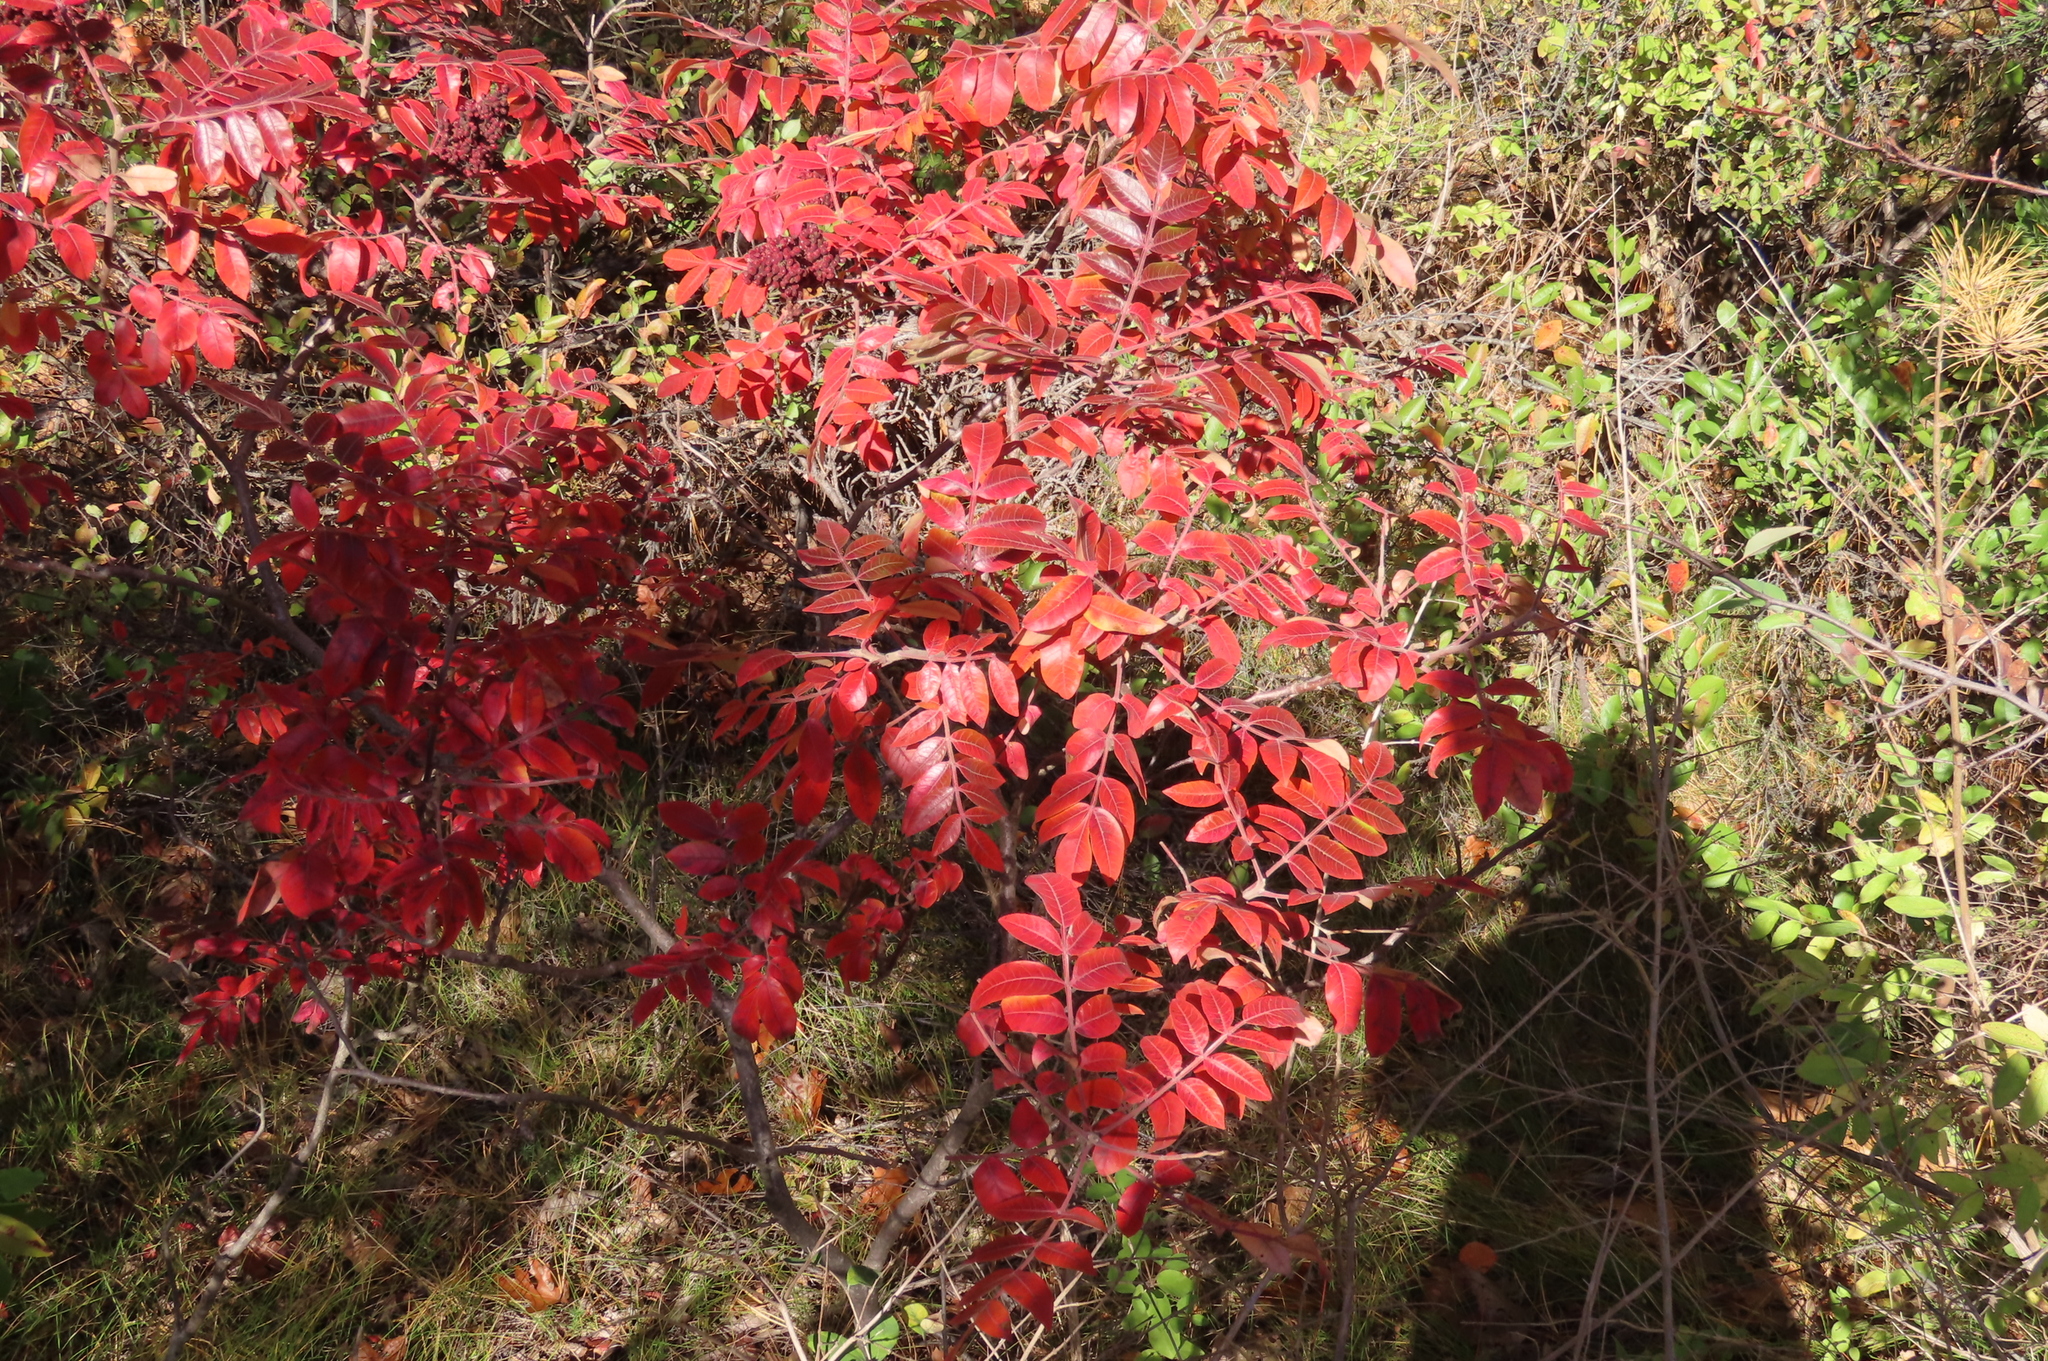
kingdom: Plantae
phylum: Tracheophyta
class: Magnoliopsida
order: Sapindales
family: Anacardiaceae
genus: Rhus
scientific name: Rhus copallina
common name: Shining sumac
